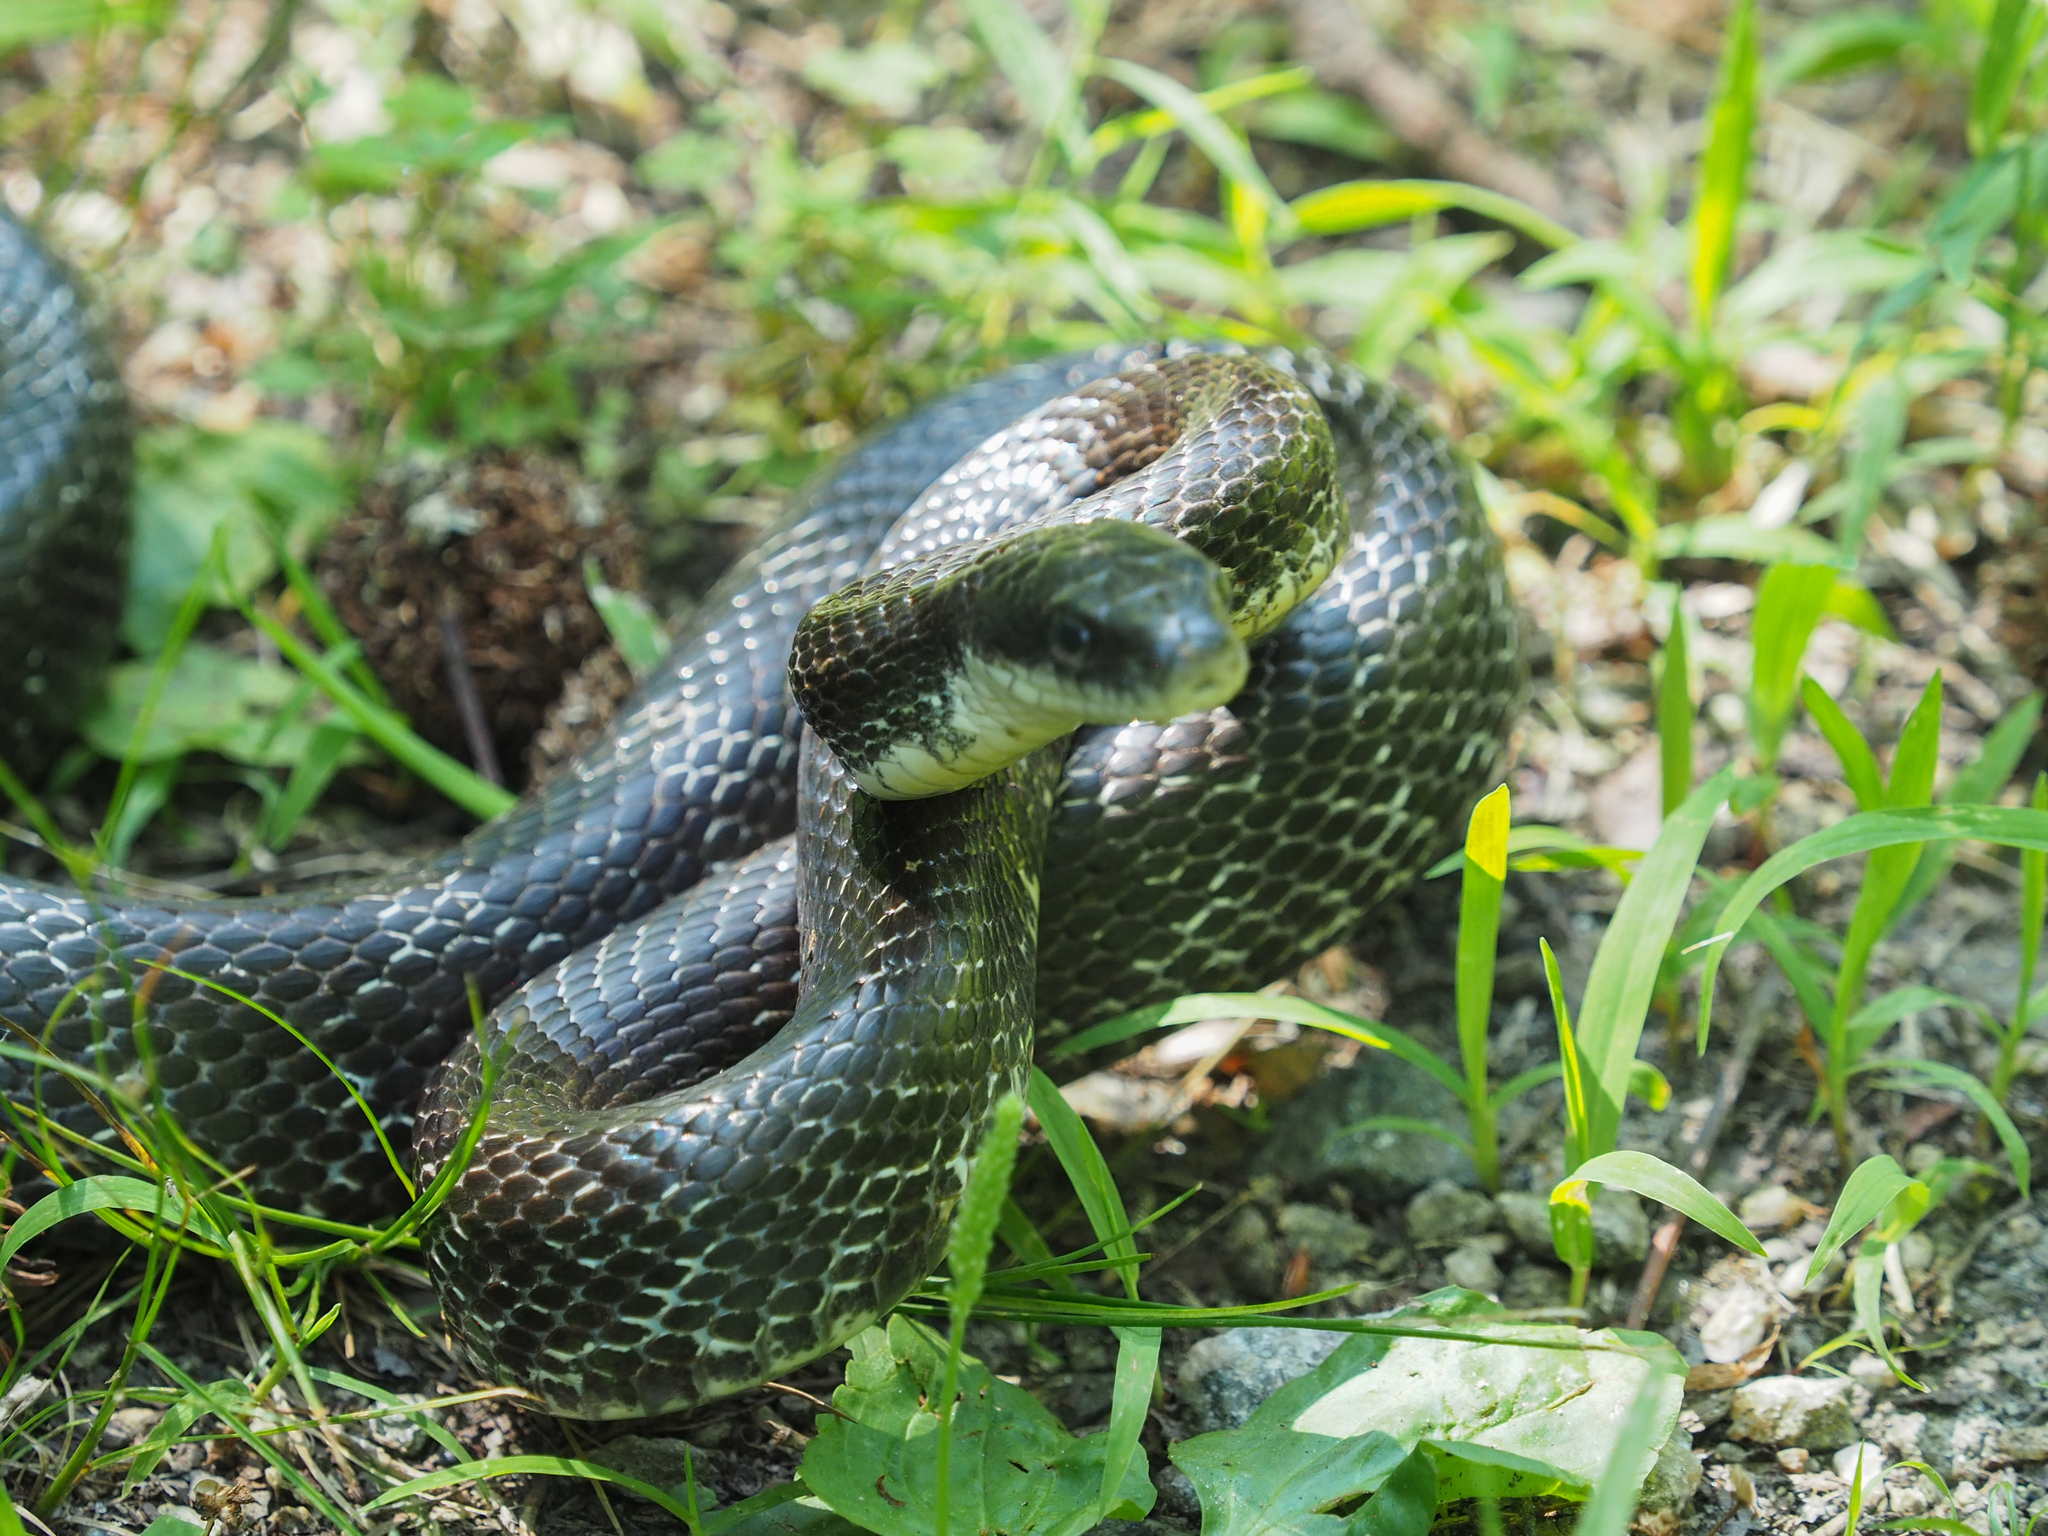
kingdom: Animalia
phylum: Chordata
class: Squamata
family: Colubridae
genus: Pantherophis
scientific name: Pantherophis alleghaniensis
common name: Eastern rat snake
